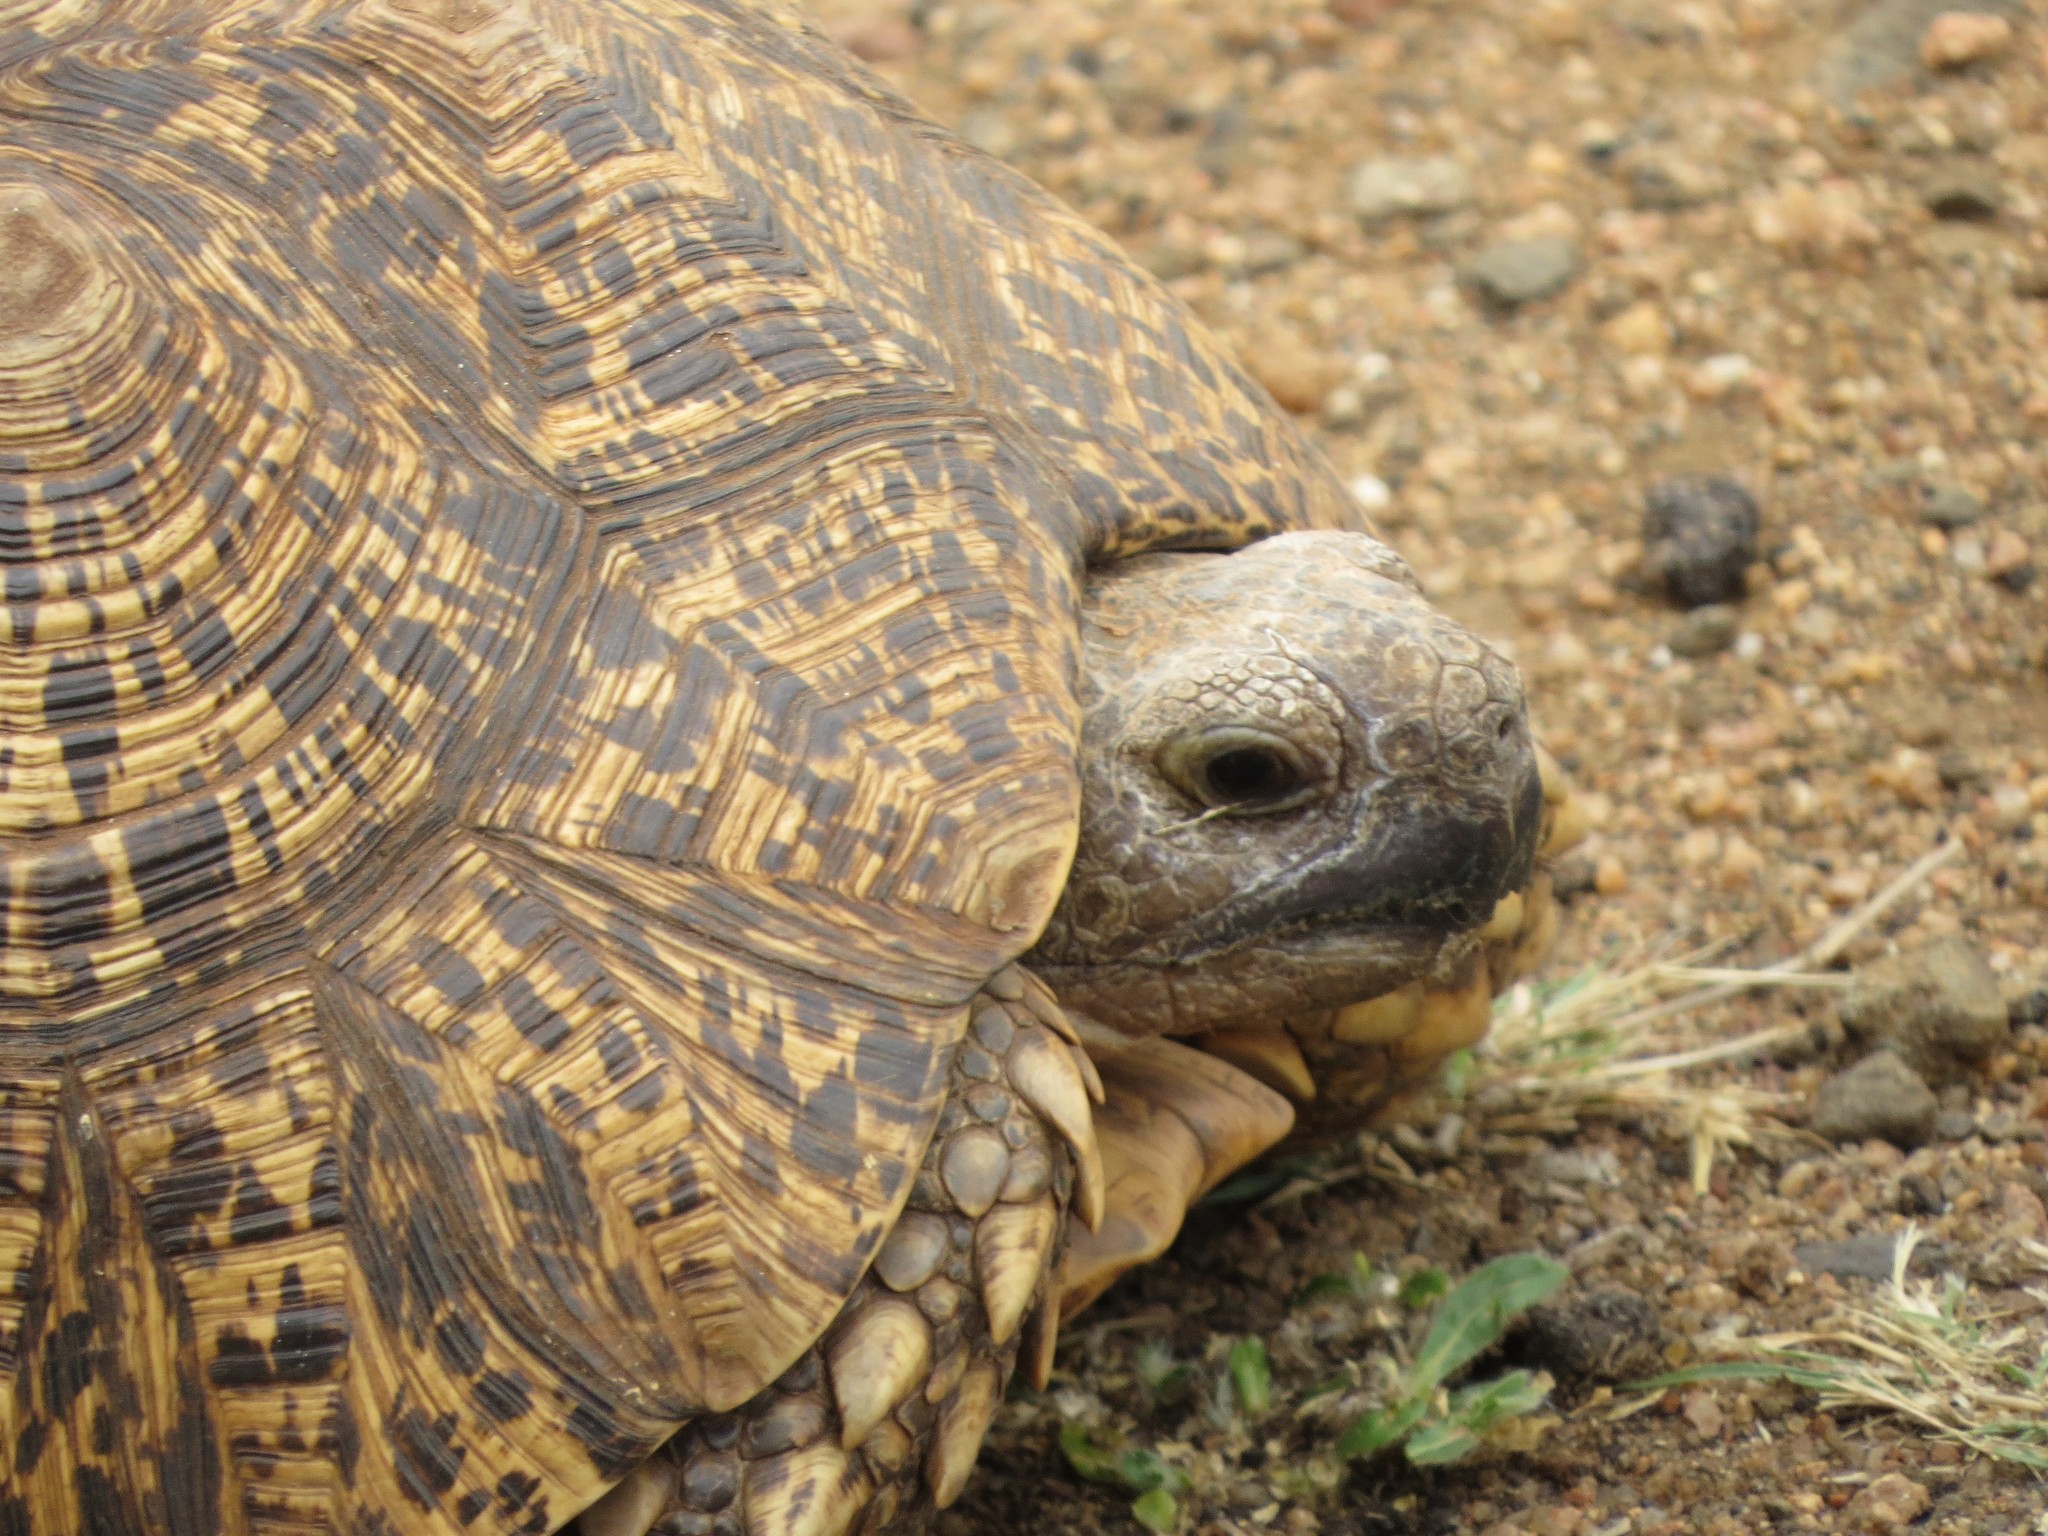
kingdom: Animalia
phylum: Chordata
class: Testudines
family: Testudinidae
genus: Stigmochelys
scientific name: Stigmochelys pardalis
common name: Leopard tortoise
